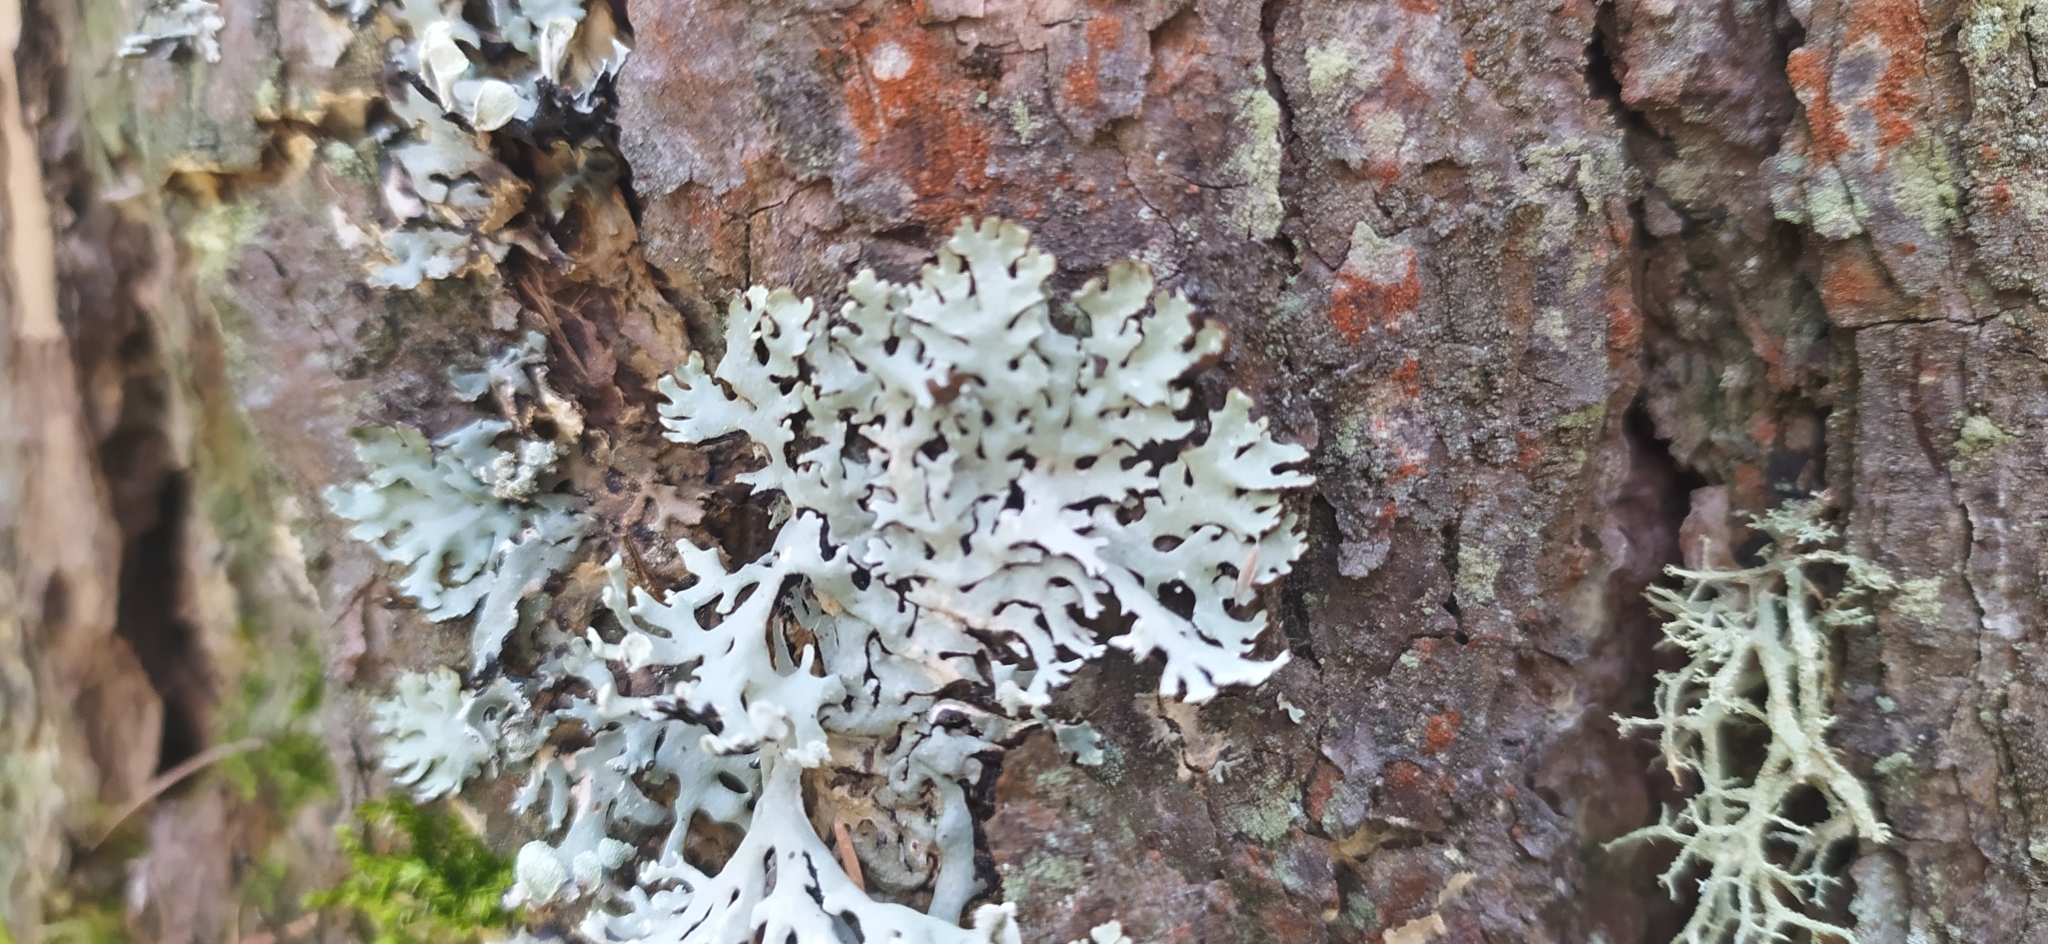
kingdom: Fungi
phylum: Ascomycota
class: Lecanoromycetes
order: Lecanorales
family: Parmeliaceae
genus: Hypogymnia
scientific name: Hypogymnia physodes
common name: Dark crottle
